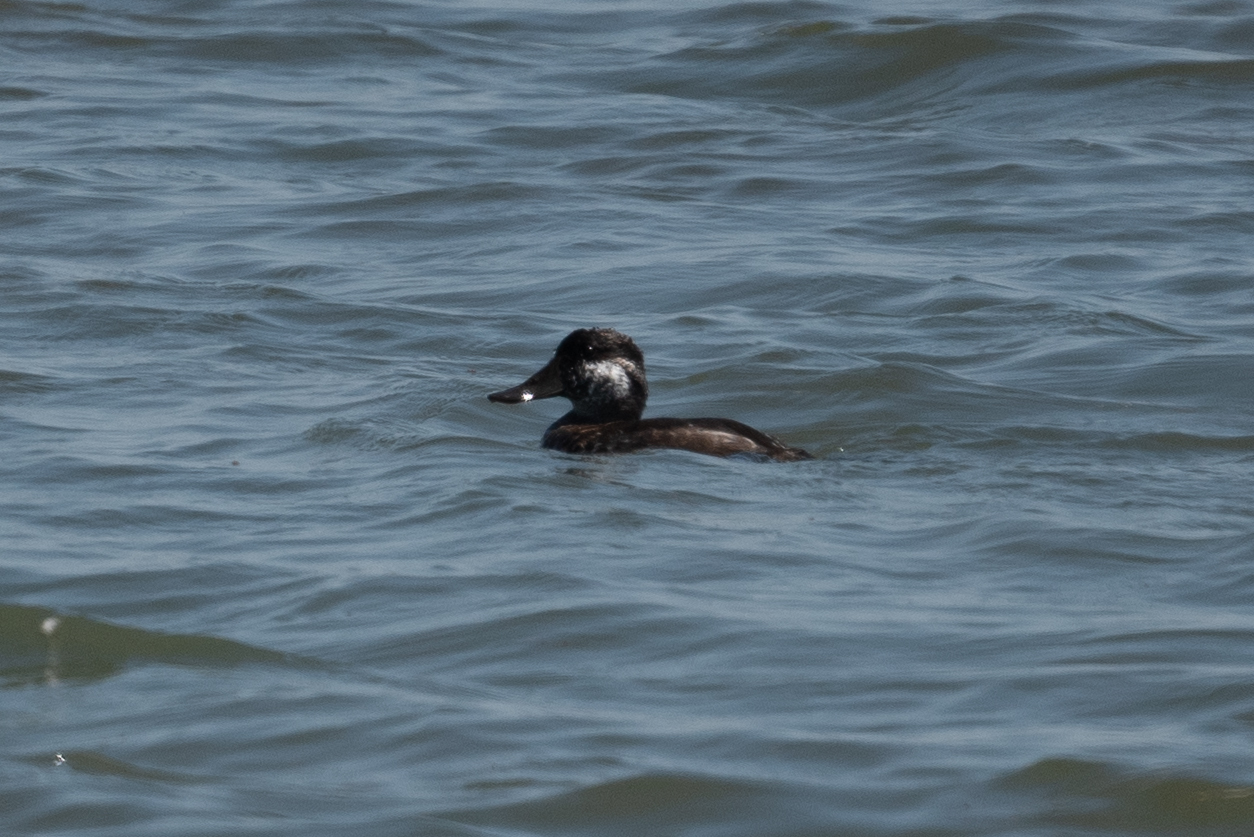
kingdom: Animalia
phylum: Chordata
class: Aves
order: Anseriformes
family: Anatidae
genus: Oxyura
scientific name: Oxyura jamaicensis
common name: Ruddy duck
